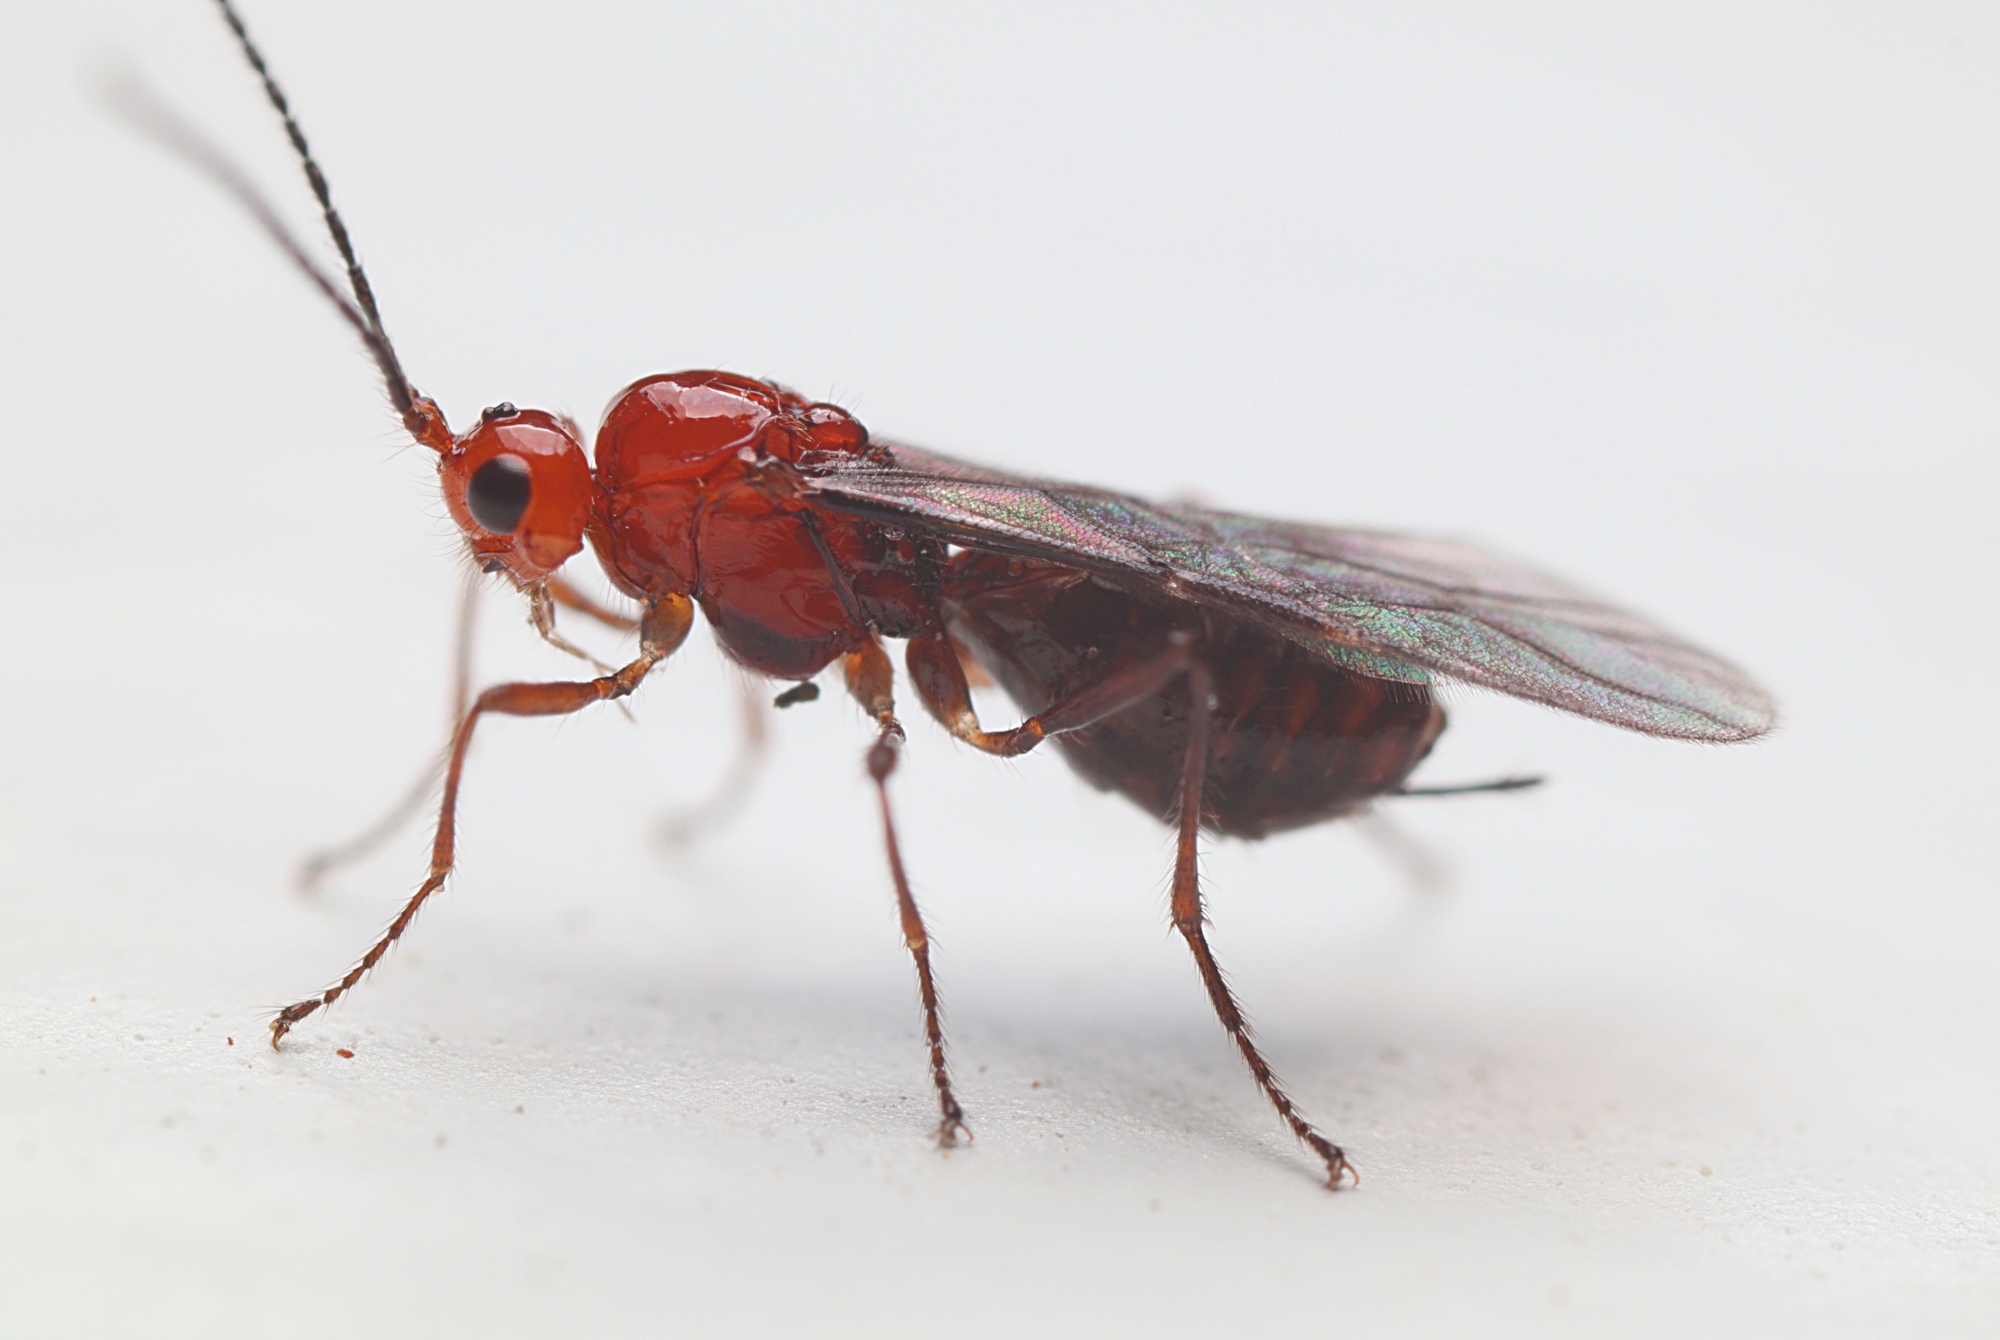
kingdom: Animalia
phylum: Arthropoda
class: Insecta
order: Hymenoptera
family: Braconidae
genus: Asobara
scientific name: Asobara antipoda
